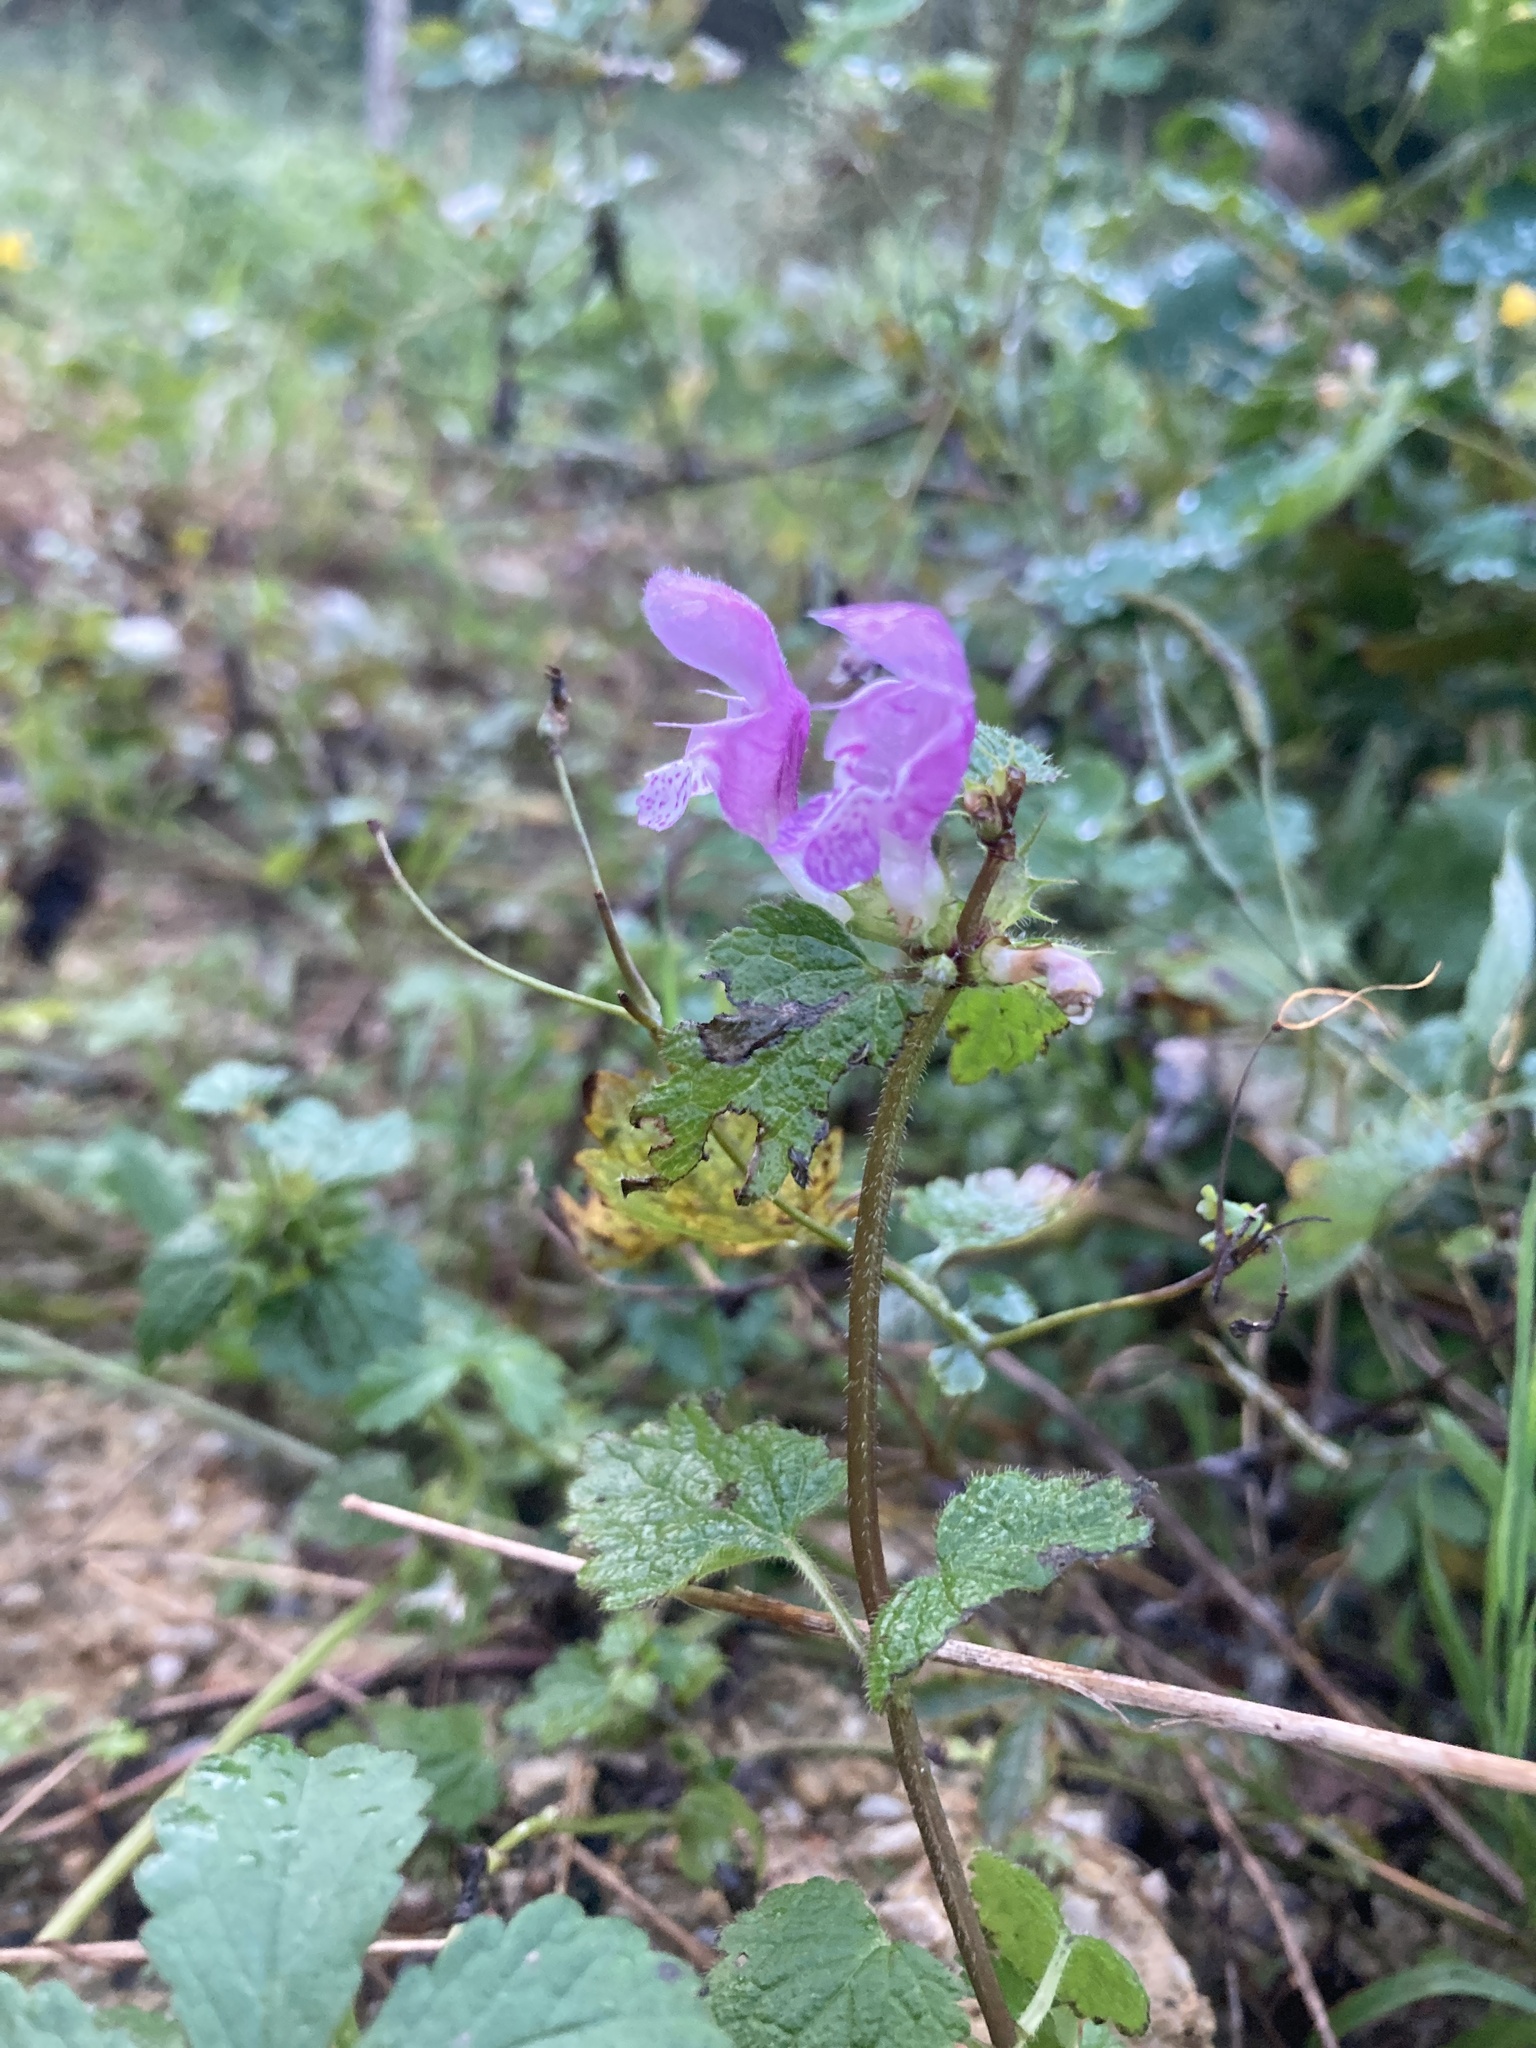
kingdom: Plantae
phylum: Tracheophyta
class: Magnoliopsida
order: Lamiales
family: Lamiaceae
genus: Lamium
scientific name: Lamium maculatum
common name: Spotted dead-nettle
